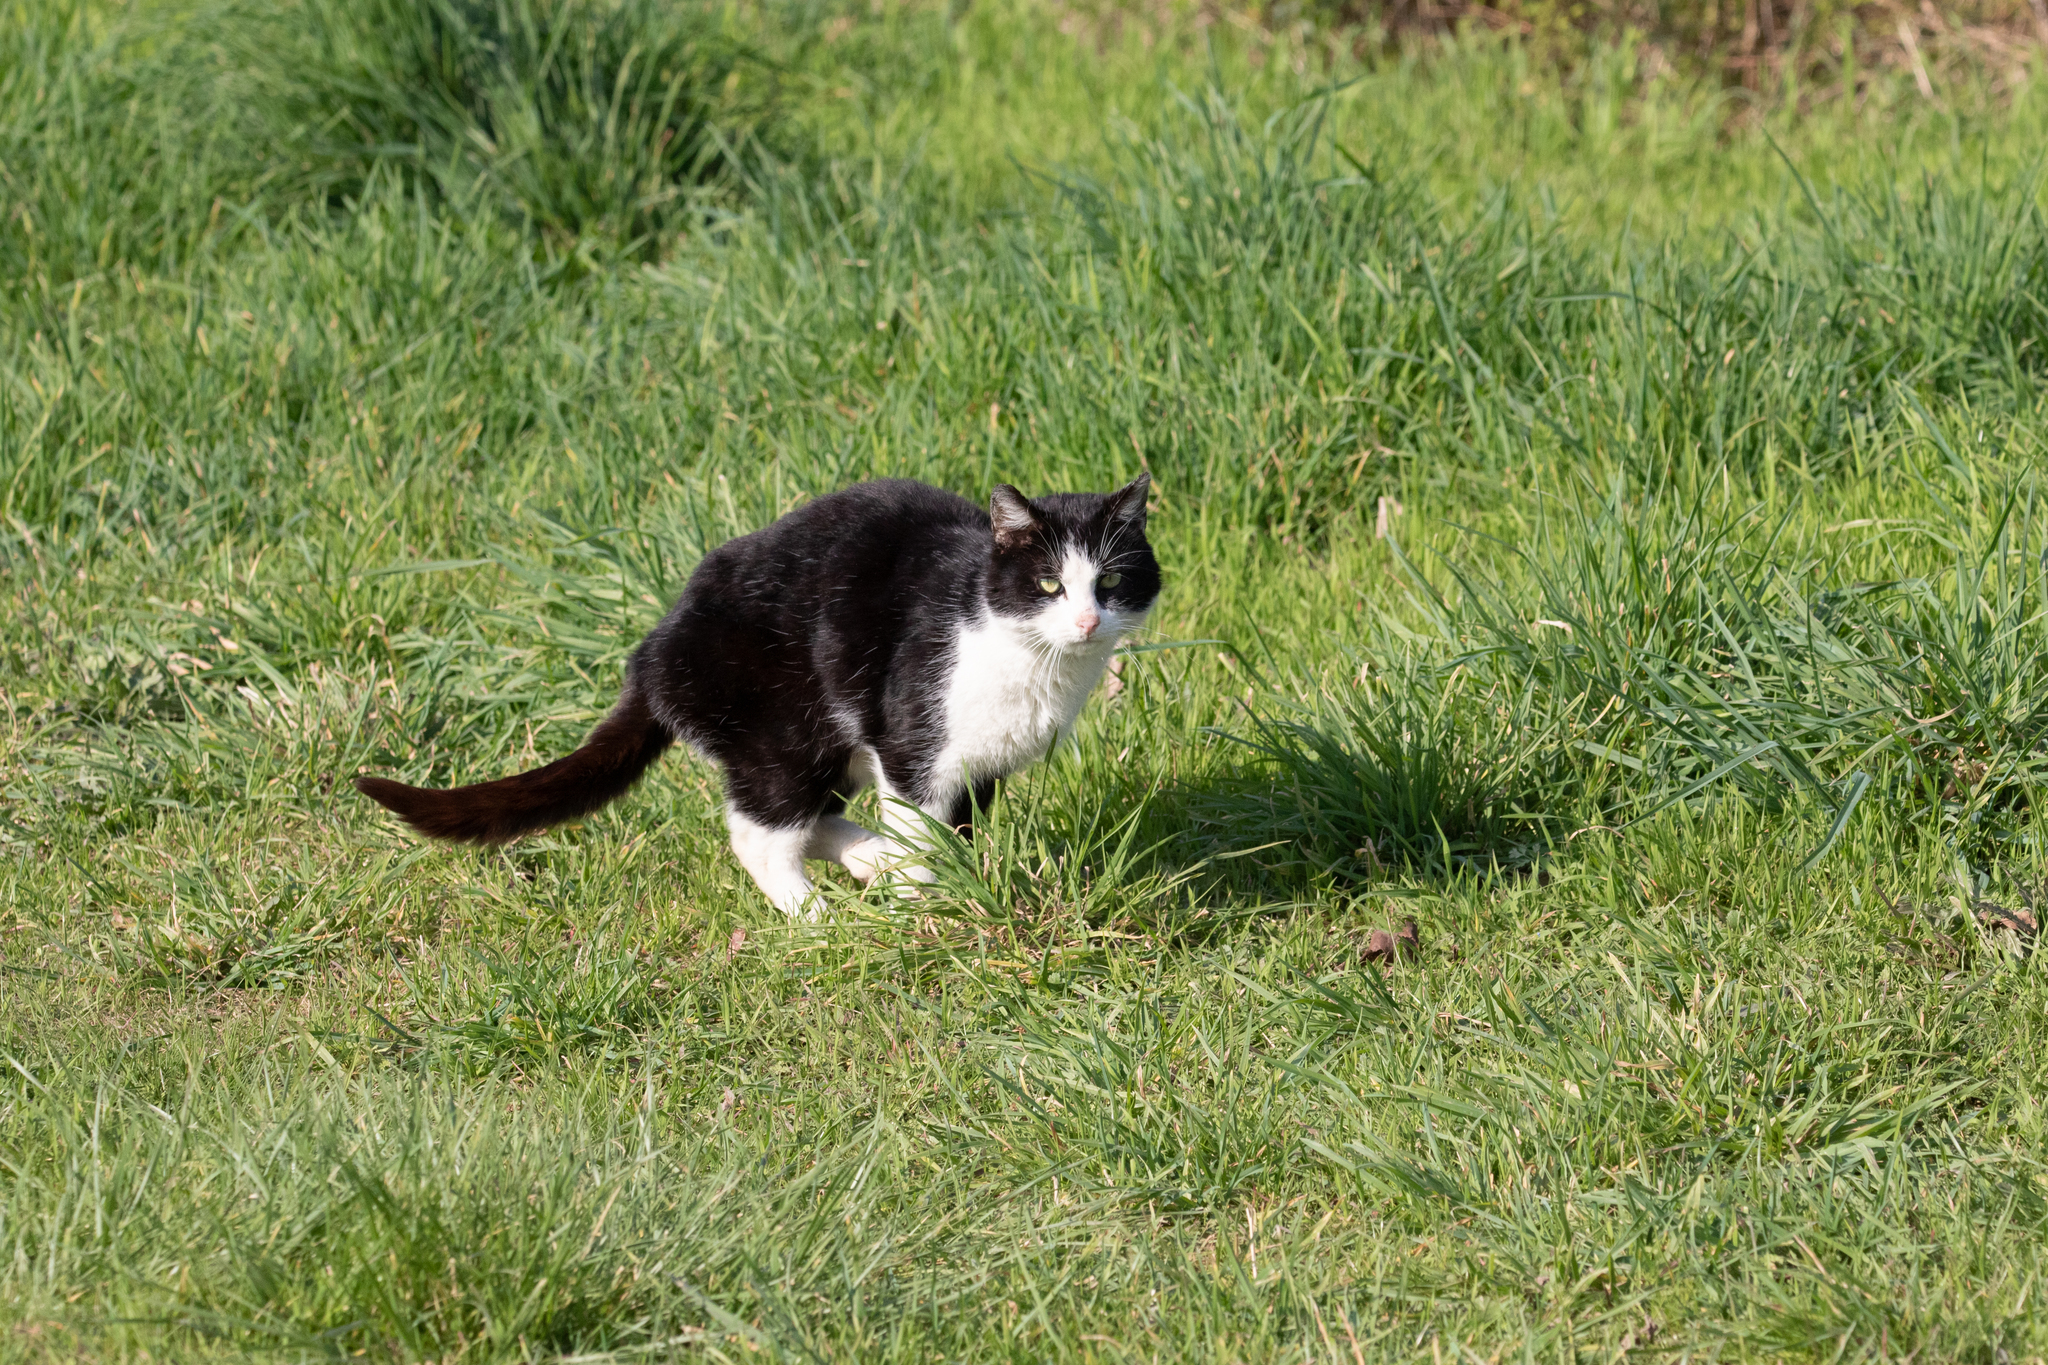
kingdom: Animalia
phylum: Chordata
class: Mammalia
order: Carnivora
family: Felidae
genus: Felis
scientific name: Felis catus
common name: Domestic cat
